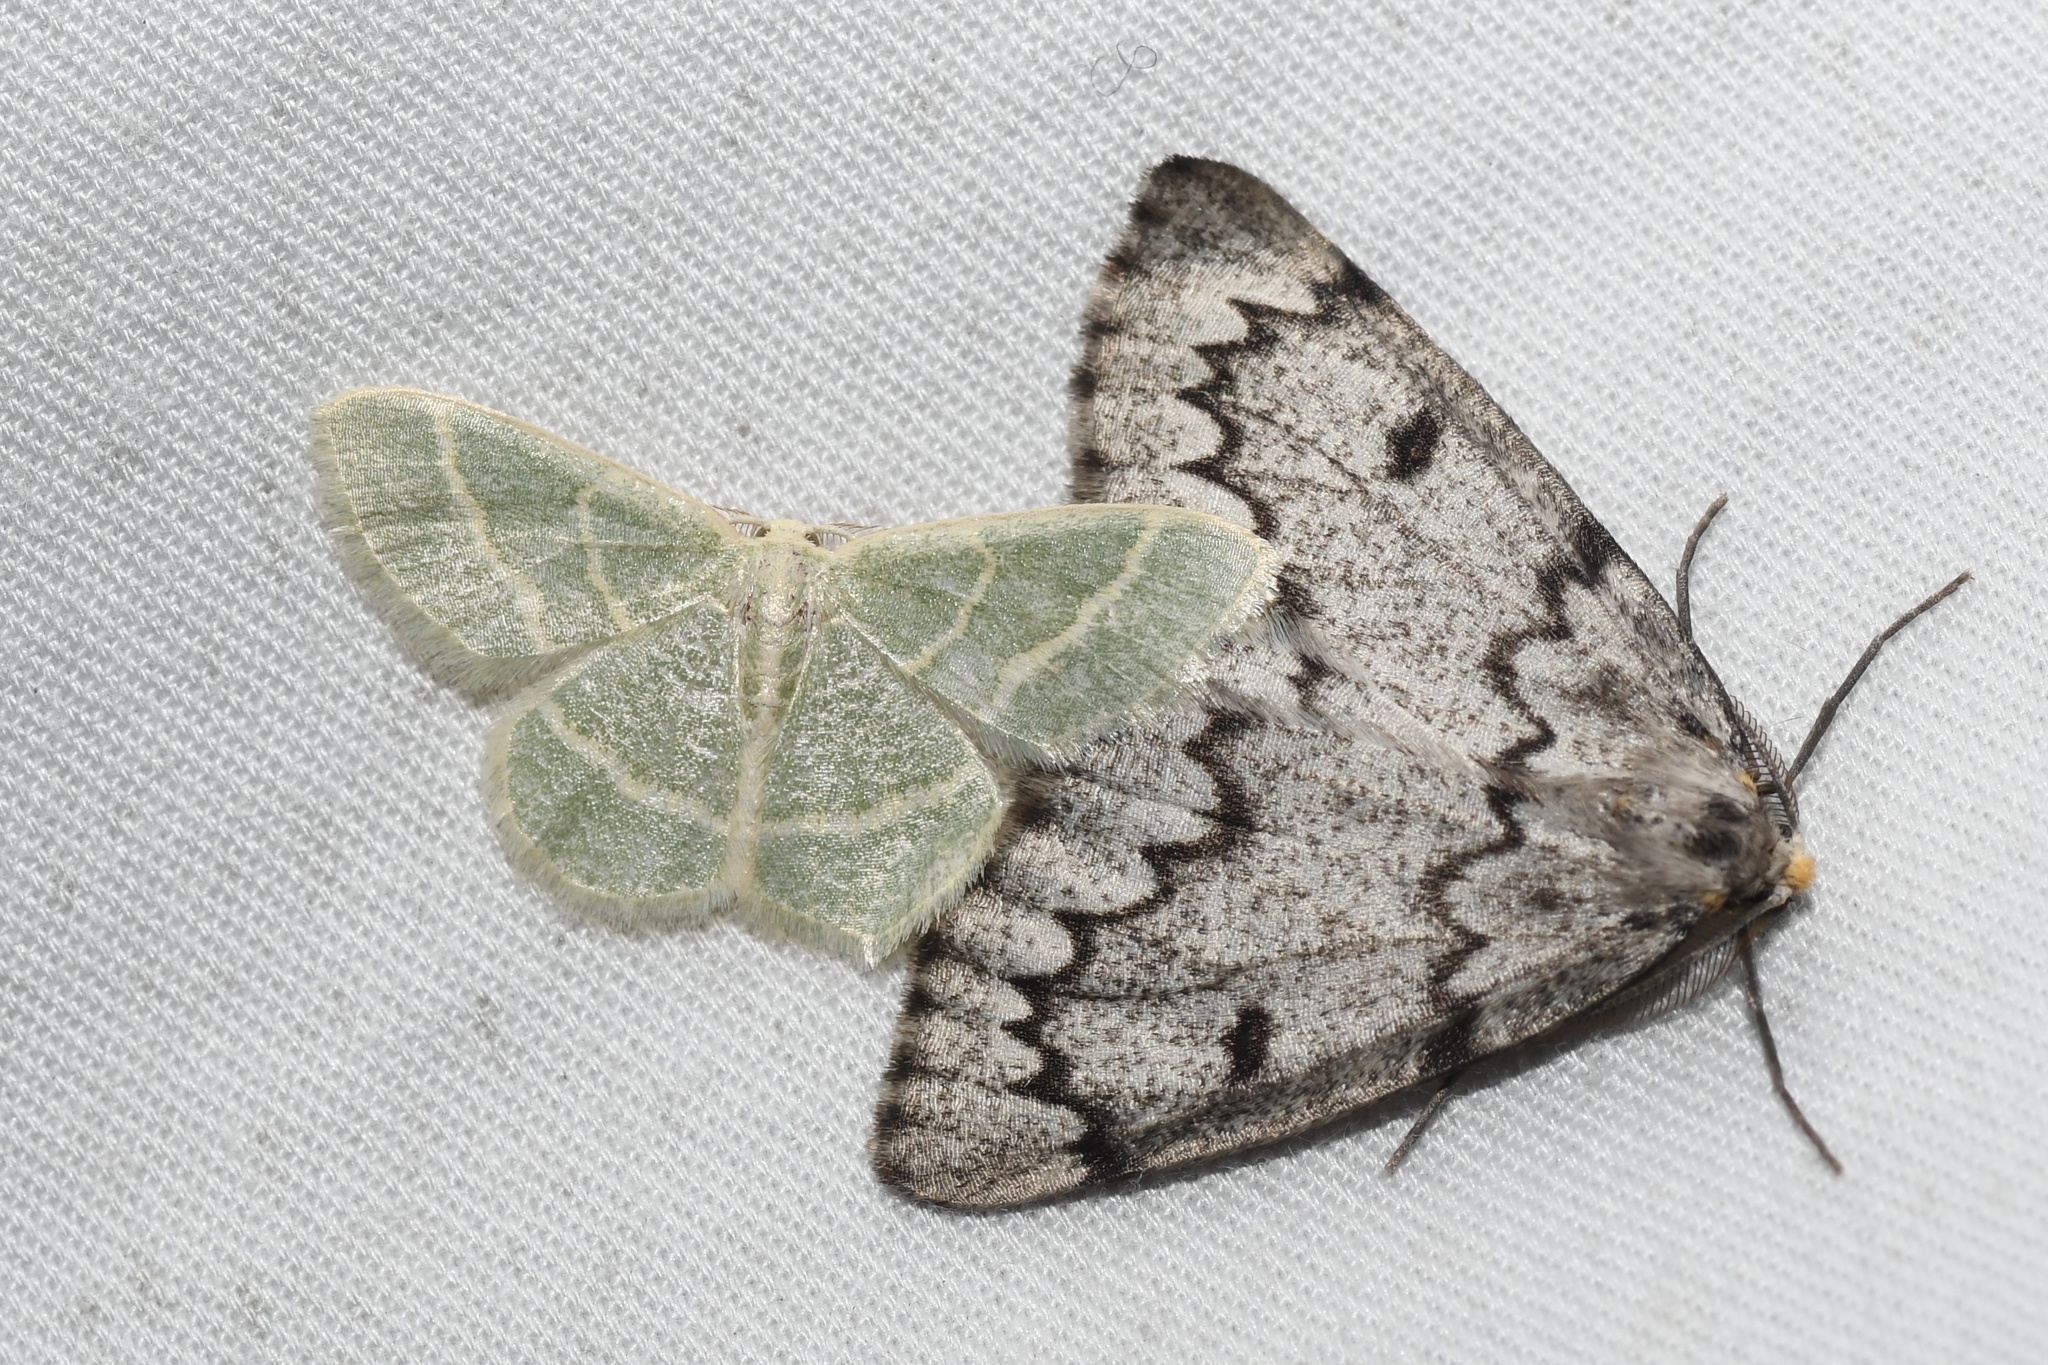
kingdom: Animalia
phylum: Arthropoda
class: Insecta
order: Lepidoptera
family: Geometridae
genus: Chlorochlamys
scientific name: Chlorochlamys chloroleucaria
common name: Blackberry looper
